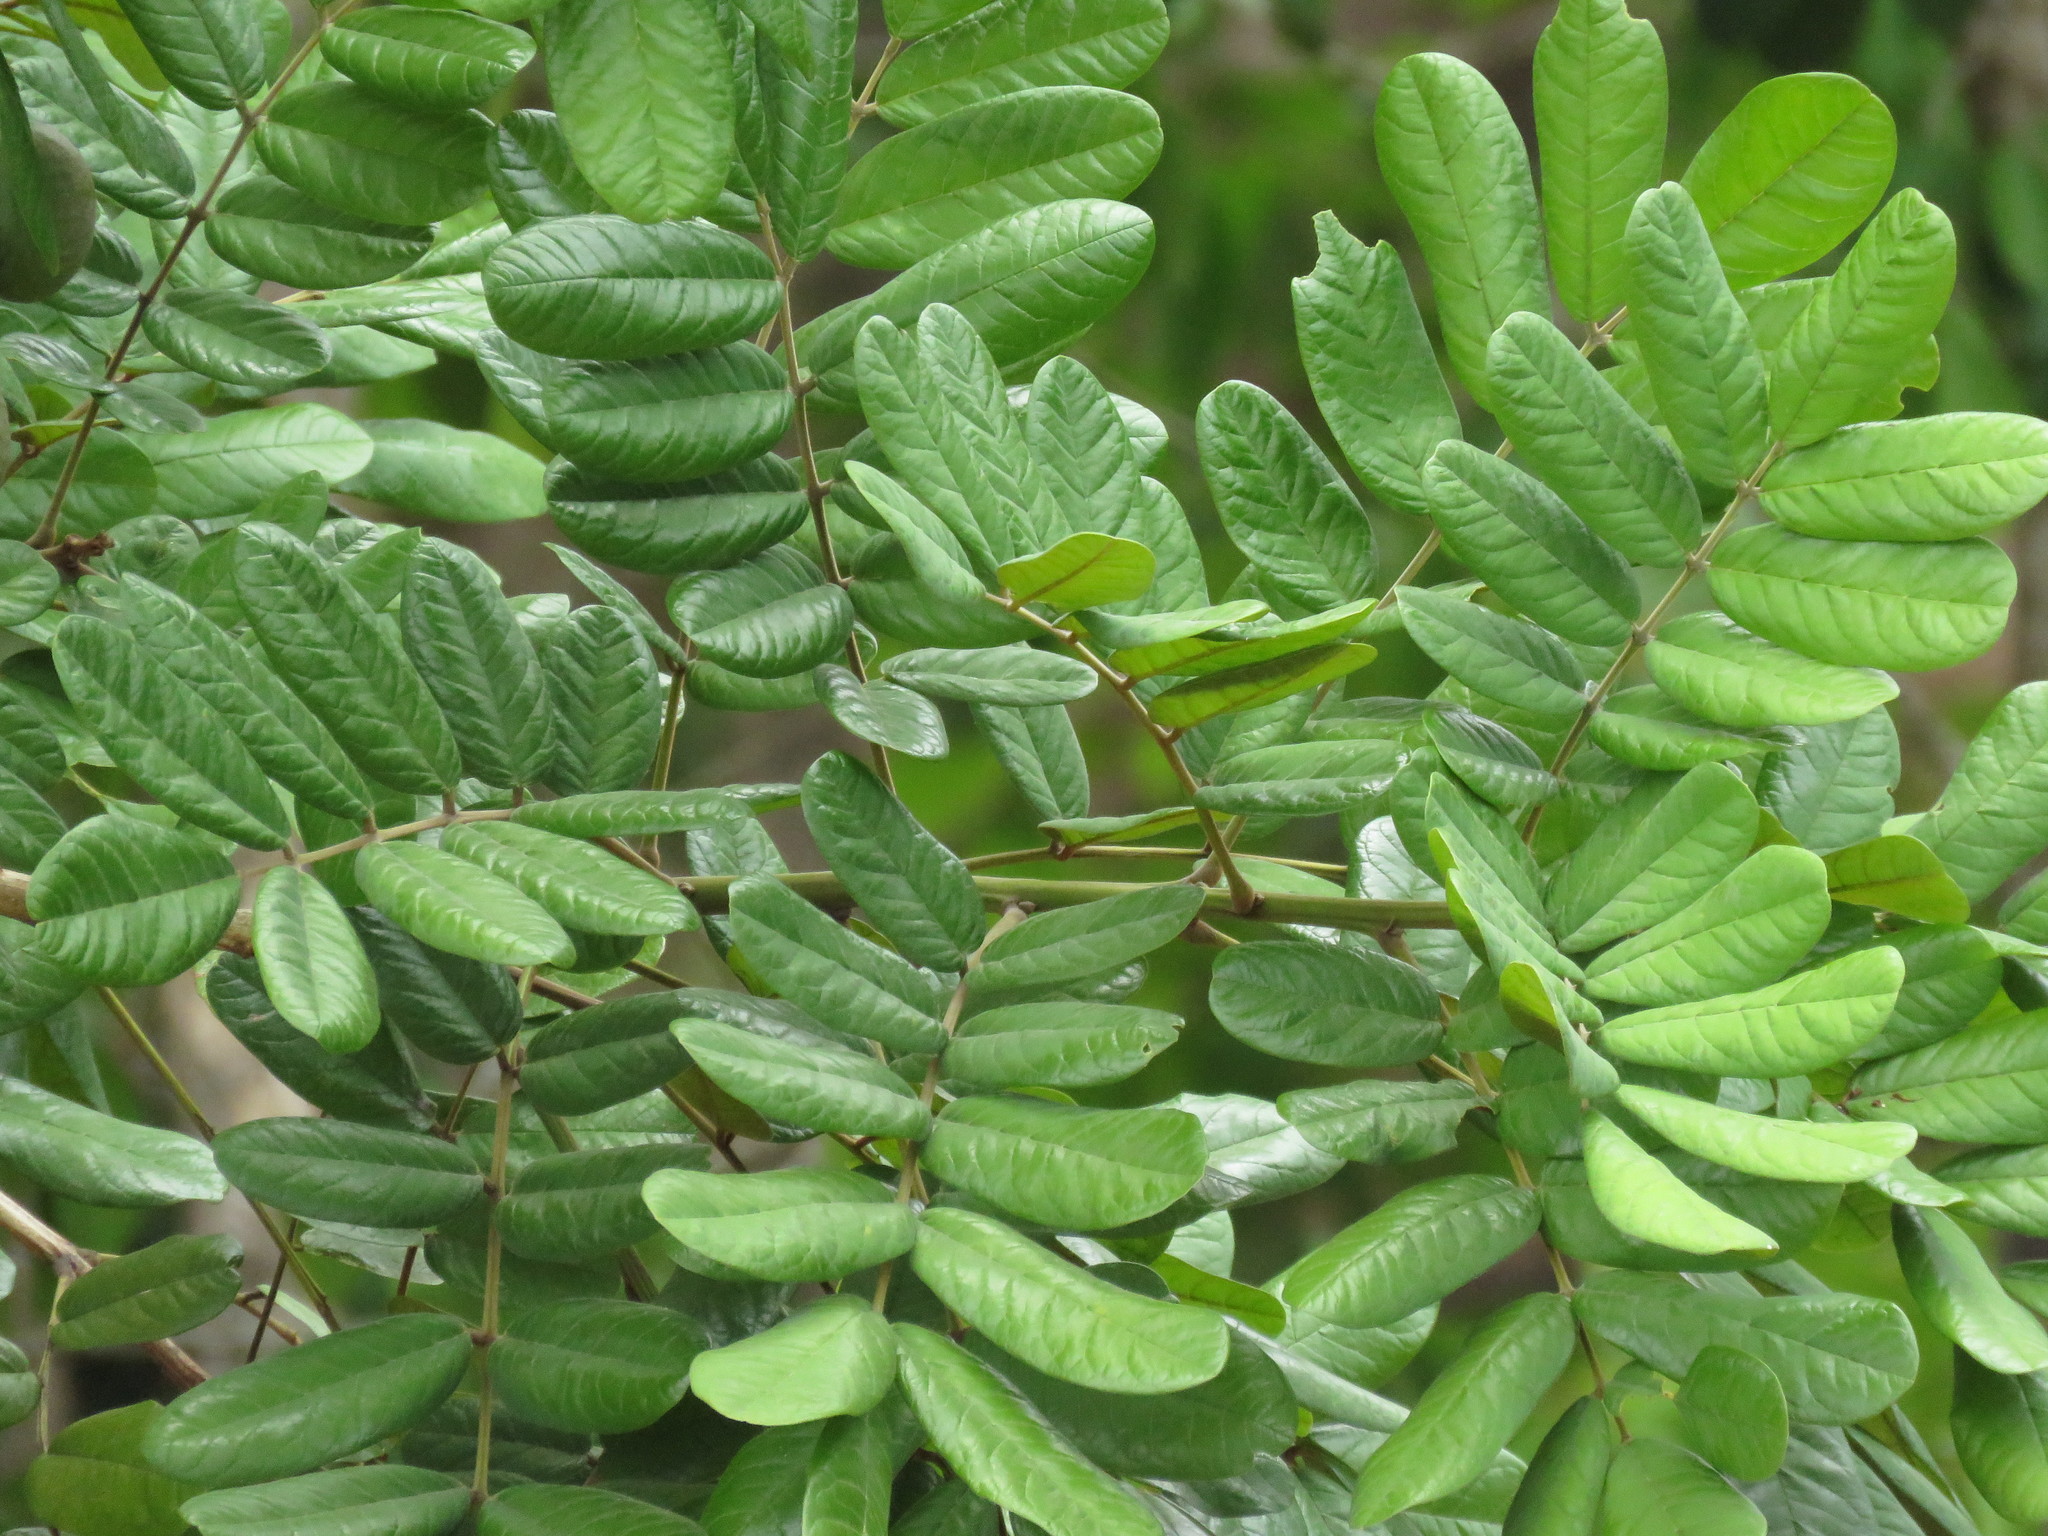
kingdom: Plantae
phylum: Tracheophyta
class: Magnoliopsida
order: Fabales
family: Fabaceae
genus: Andira
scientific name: Andira galeottiana
